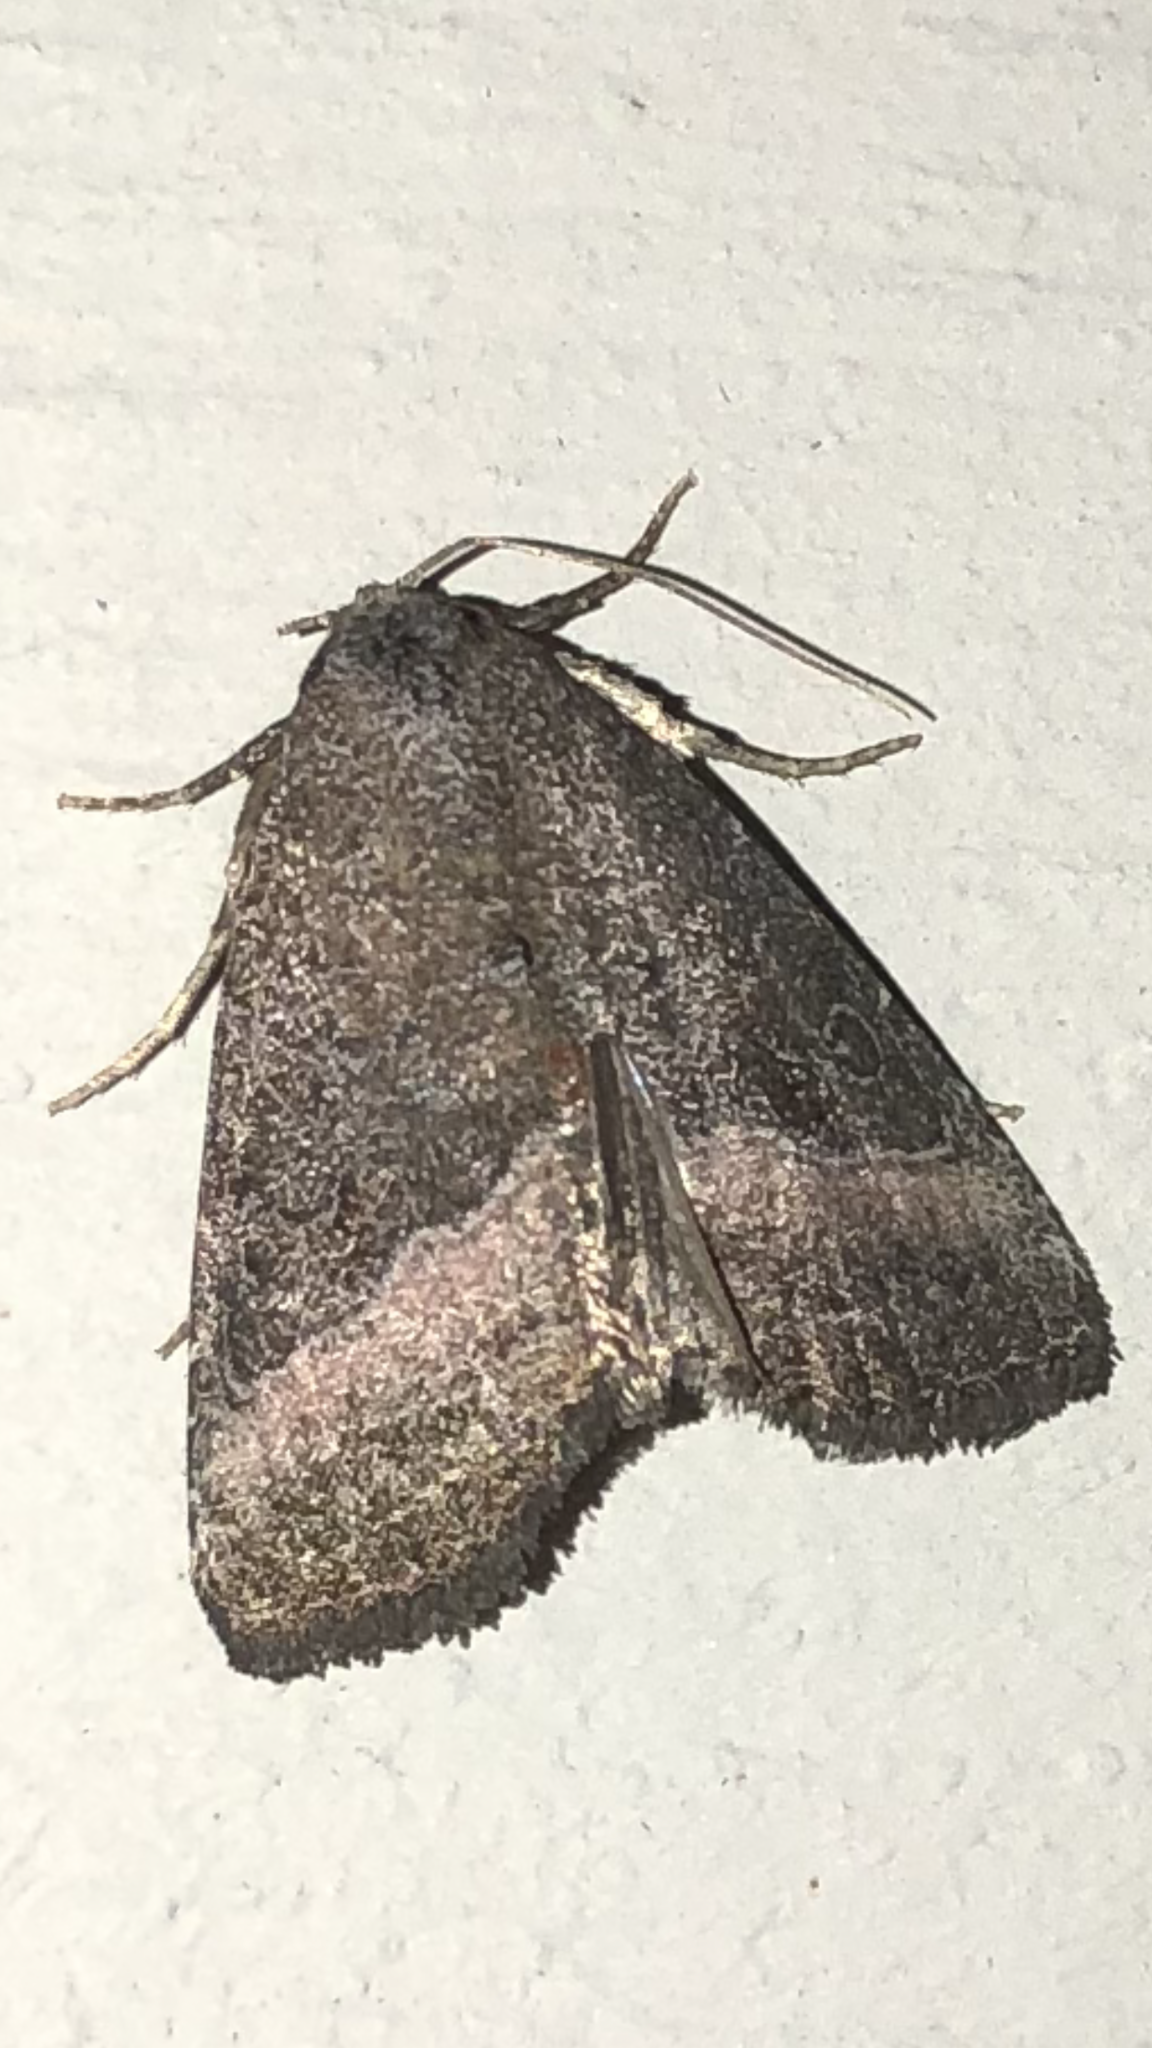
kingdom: Animalia
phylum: Arthropoda
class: Insecta
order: Lepidoptera
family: Noctuidae
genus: Ogdoconta
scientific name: Ogdoconta cinereola
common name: Common pinkband
